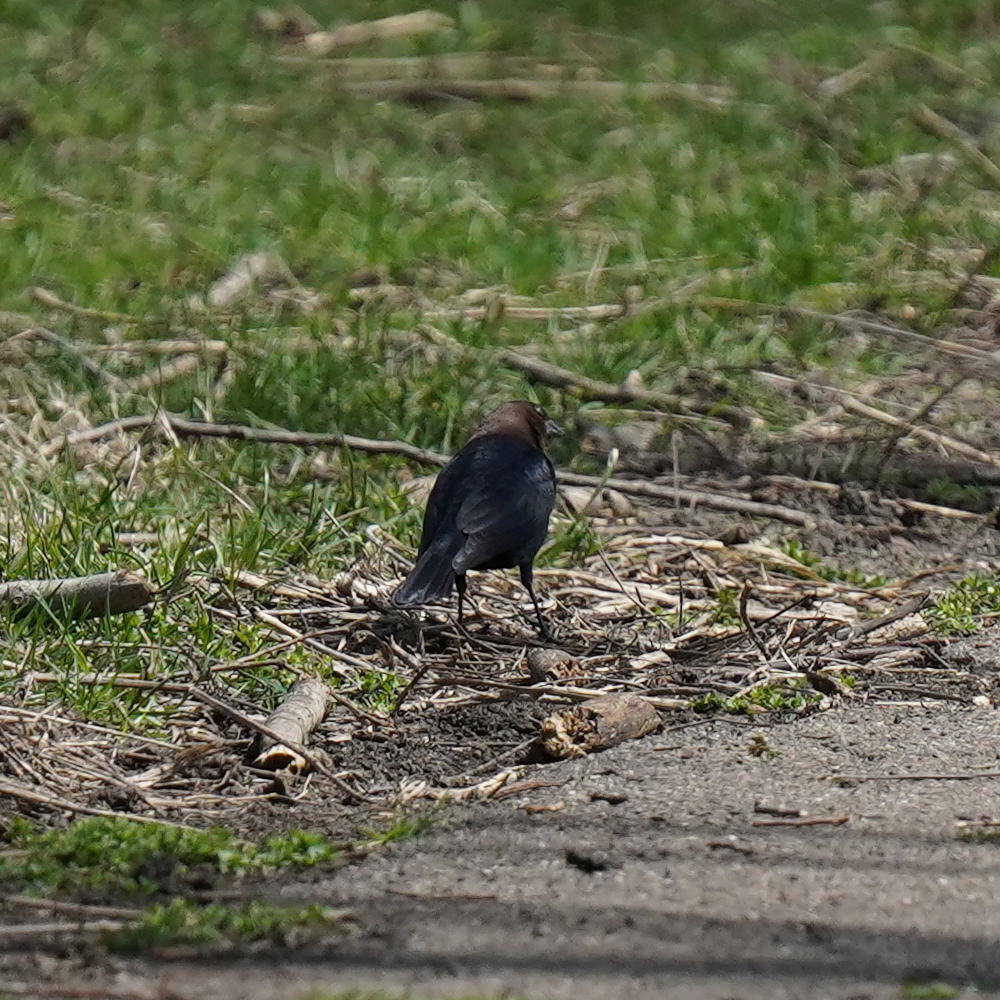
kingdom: Animalia
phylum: Chordata
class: Aves
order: Passeriformes
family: Icteridae
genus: Molothrus
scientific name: Molothrus ater
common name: Brown-headed cowbird
